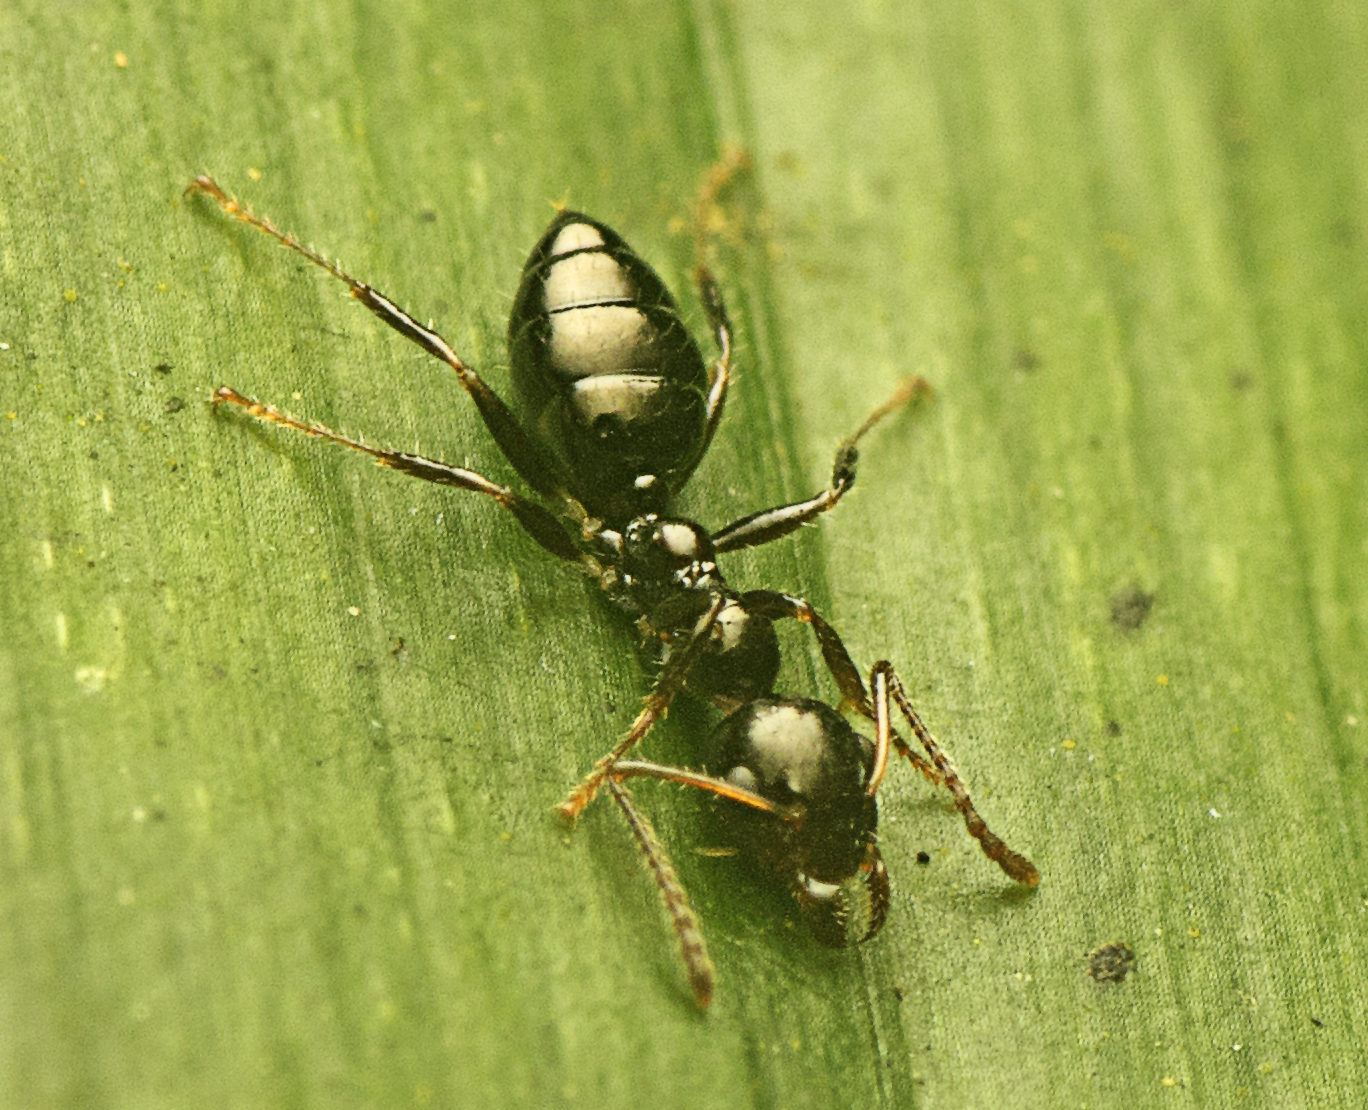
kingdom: Animalia
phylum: Arthropoda
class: Insecta
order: Hymenoptera
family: Formicidae
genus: Myrmecorhynchus
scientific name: Myrmecorhynchus emeryi
